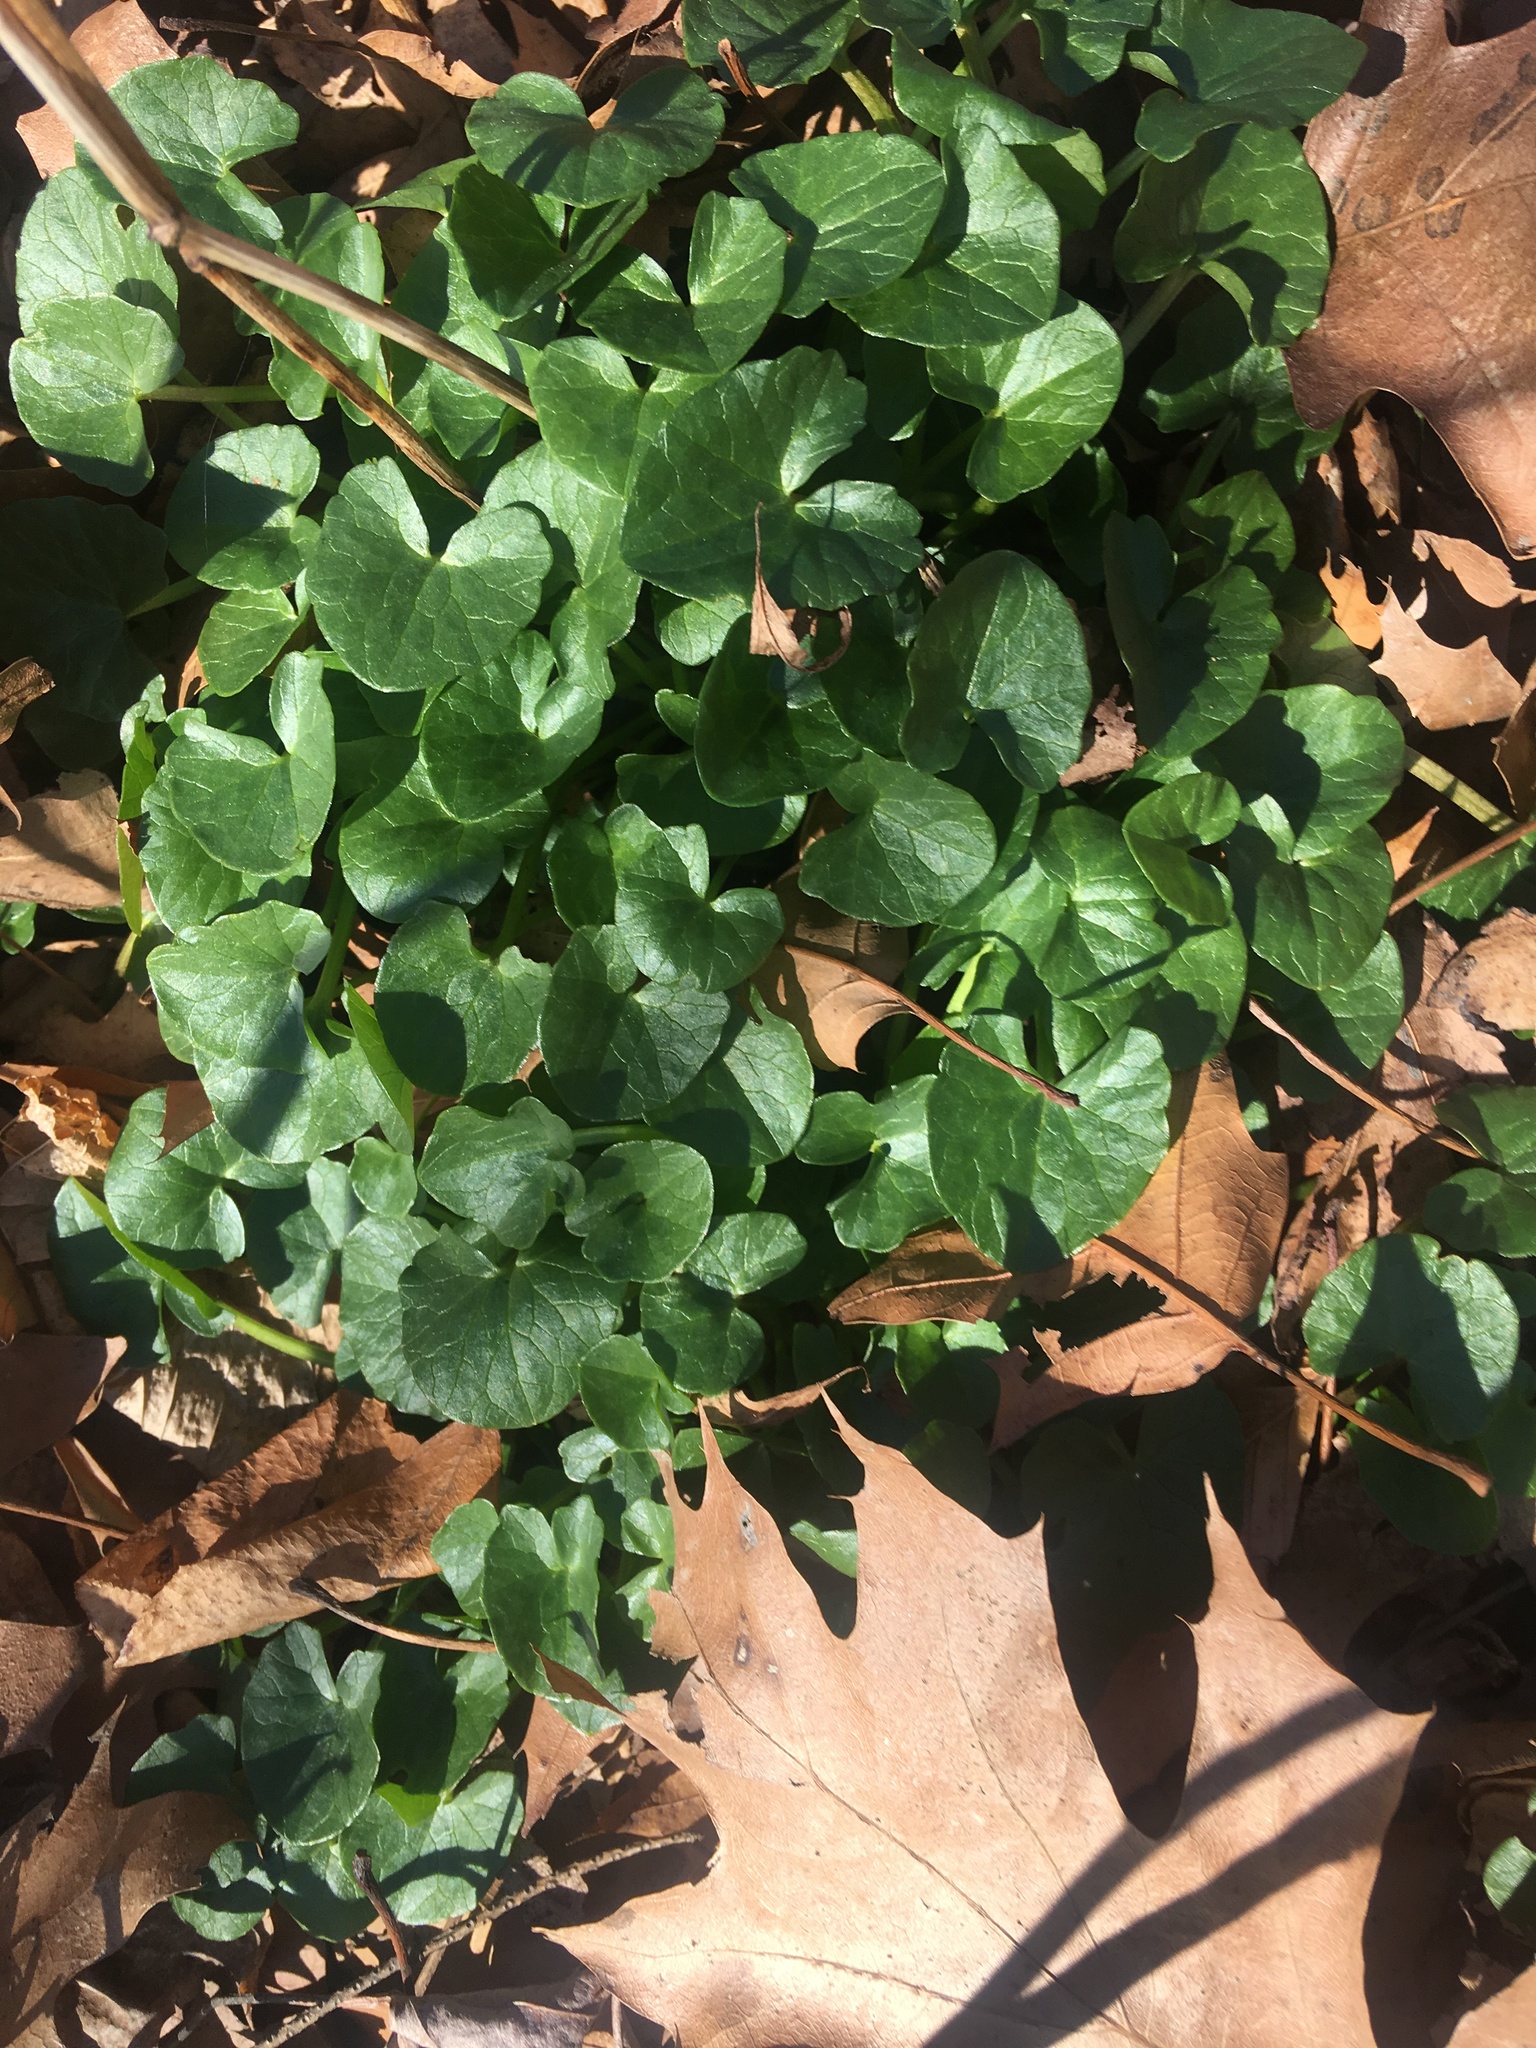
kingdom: Plantae
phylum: Tracheophyta
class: Magnoliopsida
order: Ranunculales
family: Ranunculaceae
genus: Ficaria
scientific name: Ficaria verna
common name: Lesser celandine
